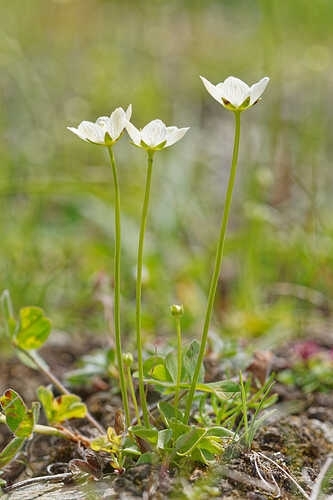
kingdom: Plantae
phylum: Tracheophyta
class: Magnoliopsida
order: Celastrales
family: Parnassiaceae
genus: Parnassia
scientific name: Parnassia palustris
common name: Grass-of-parnassus
